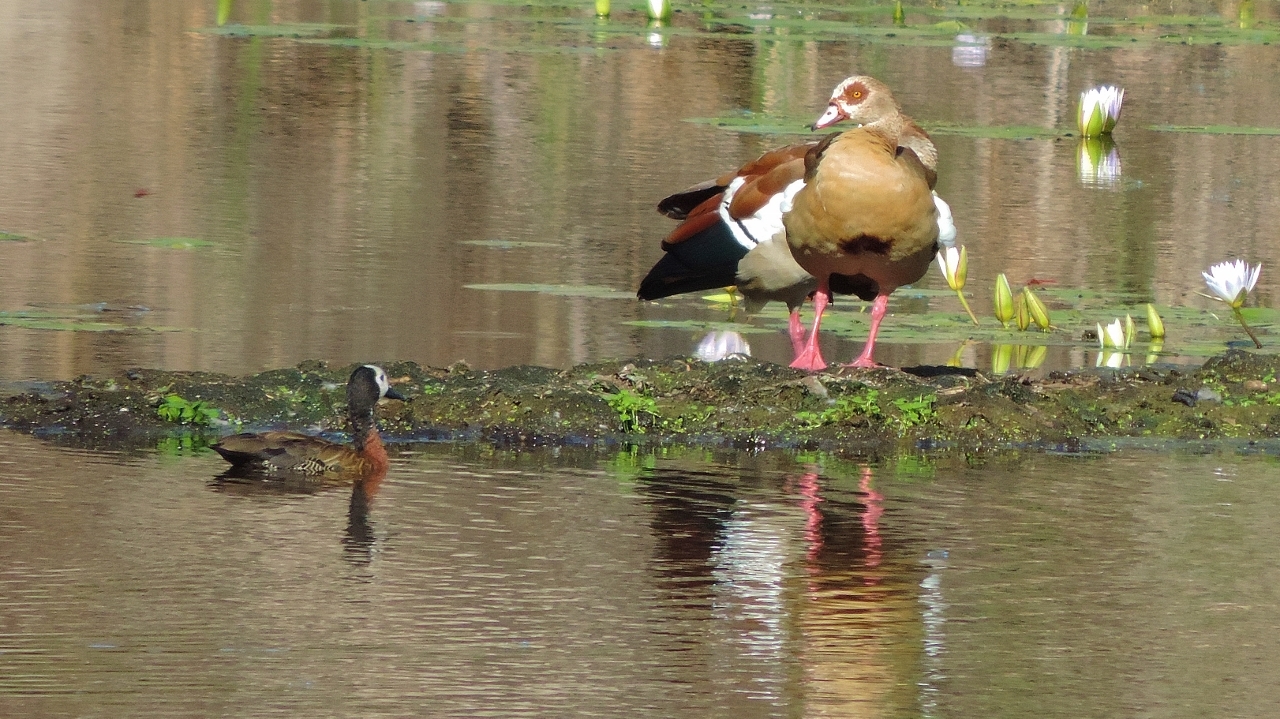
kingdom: Animalia
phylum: Chordata
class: Aves
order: Anseriformes
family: Anatidae
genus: Alopochen
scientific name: Alopochen aegyptiaca
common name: Egyptian goose
